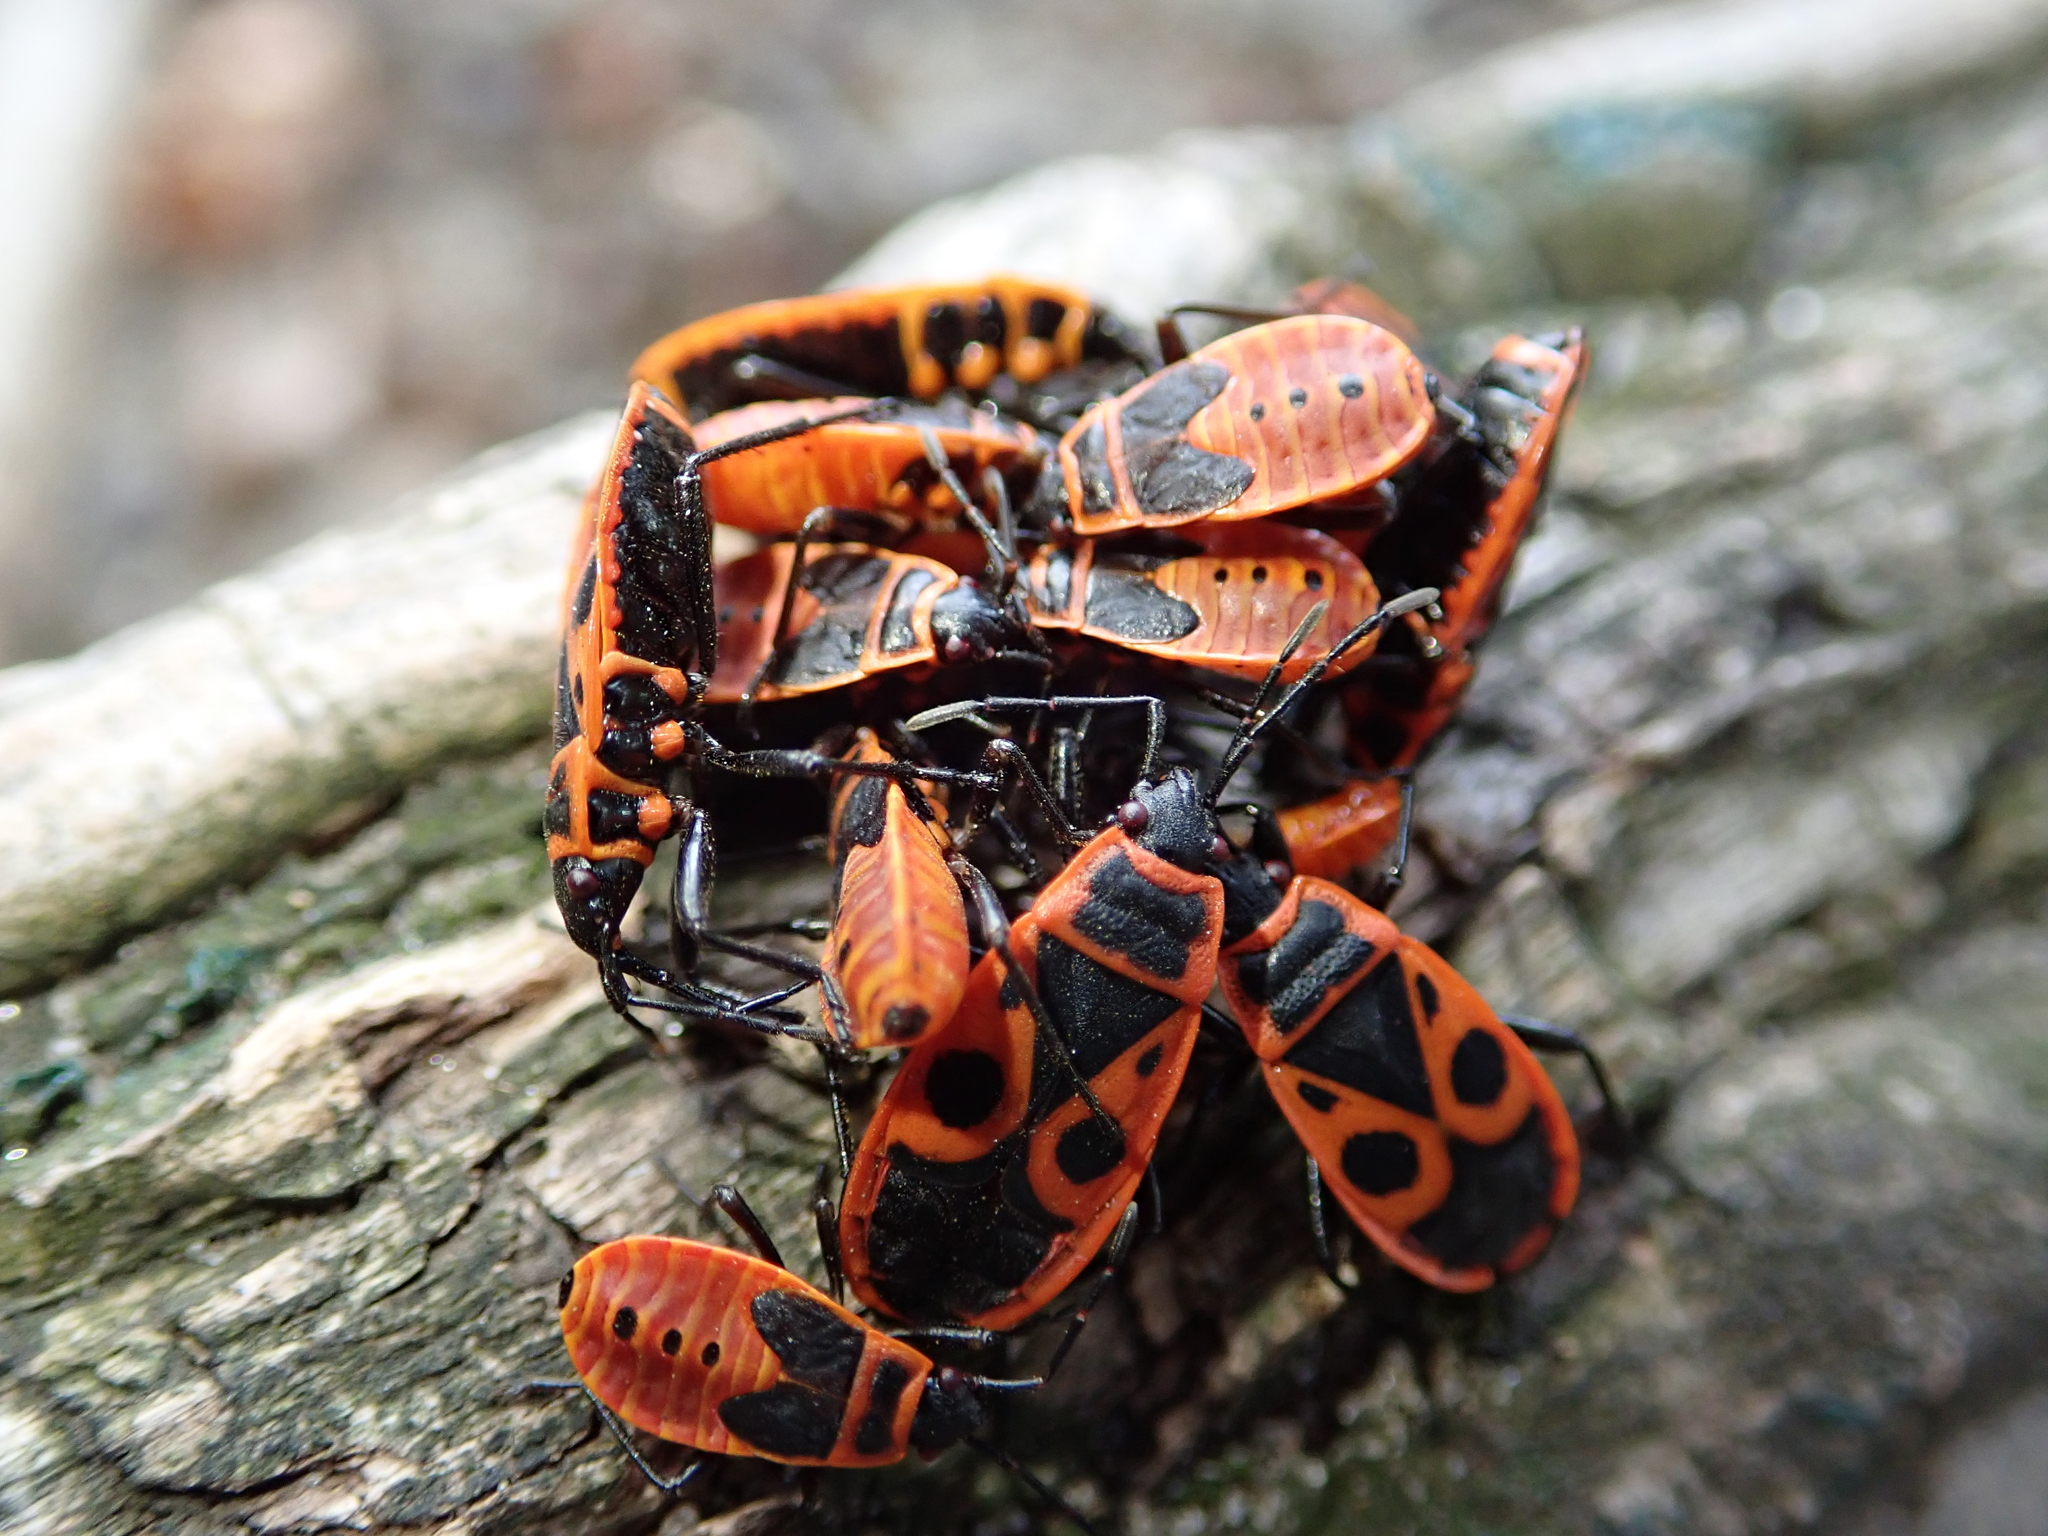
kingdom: Animalia
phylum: Arthropoda
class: Insecta
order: Hemiptera
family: Pyrrhocoridae
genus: Pyrrhocoris
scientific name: Pyrrhocoris apterus
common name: Firebug
